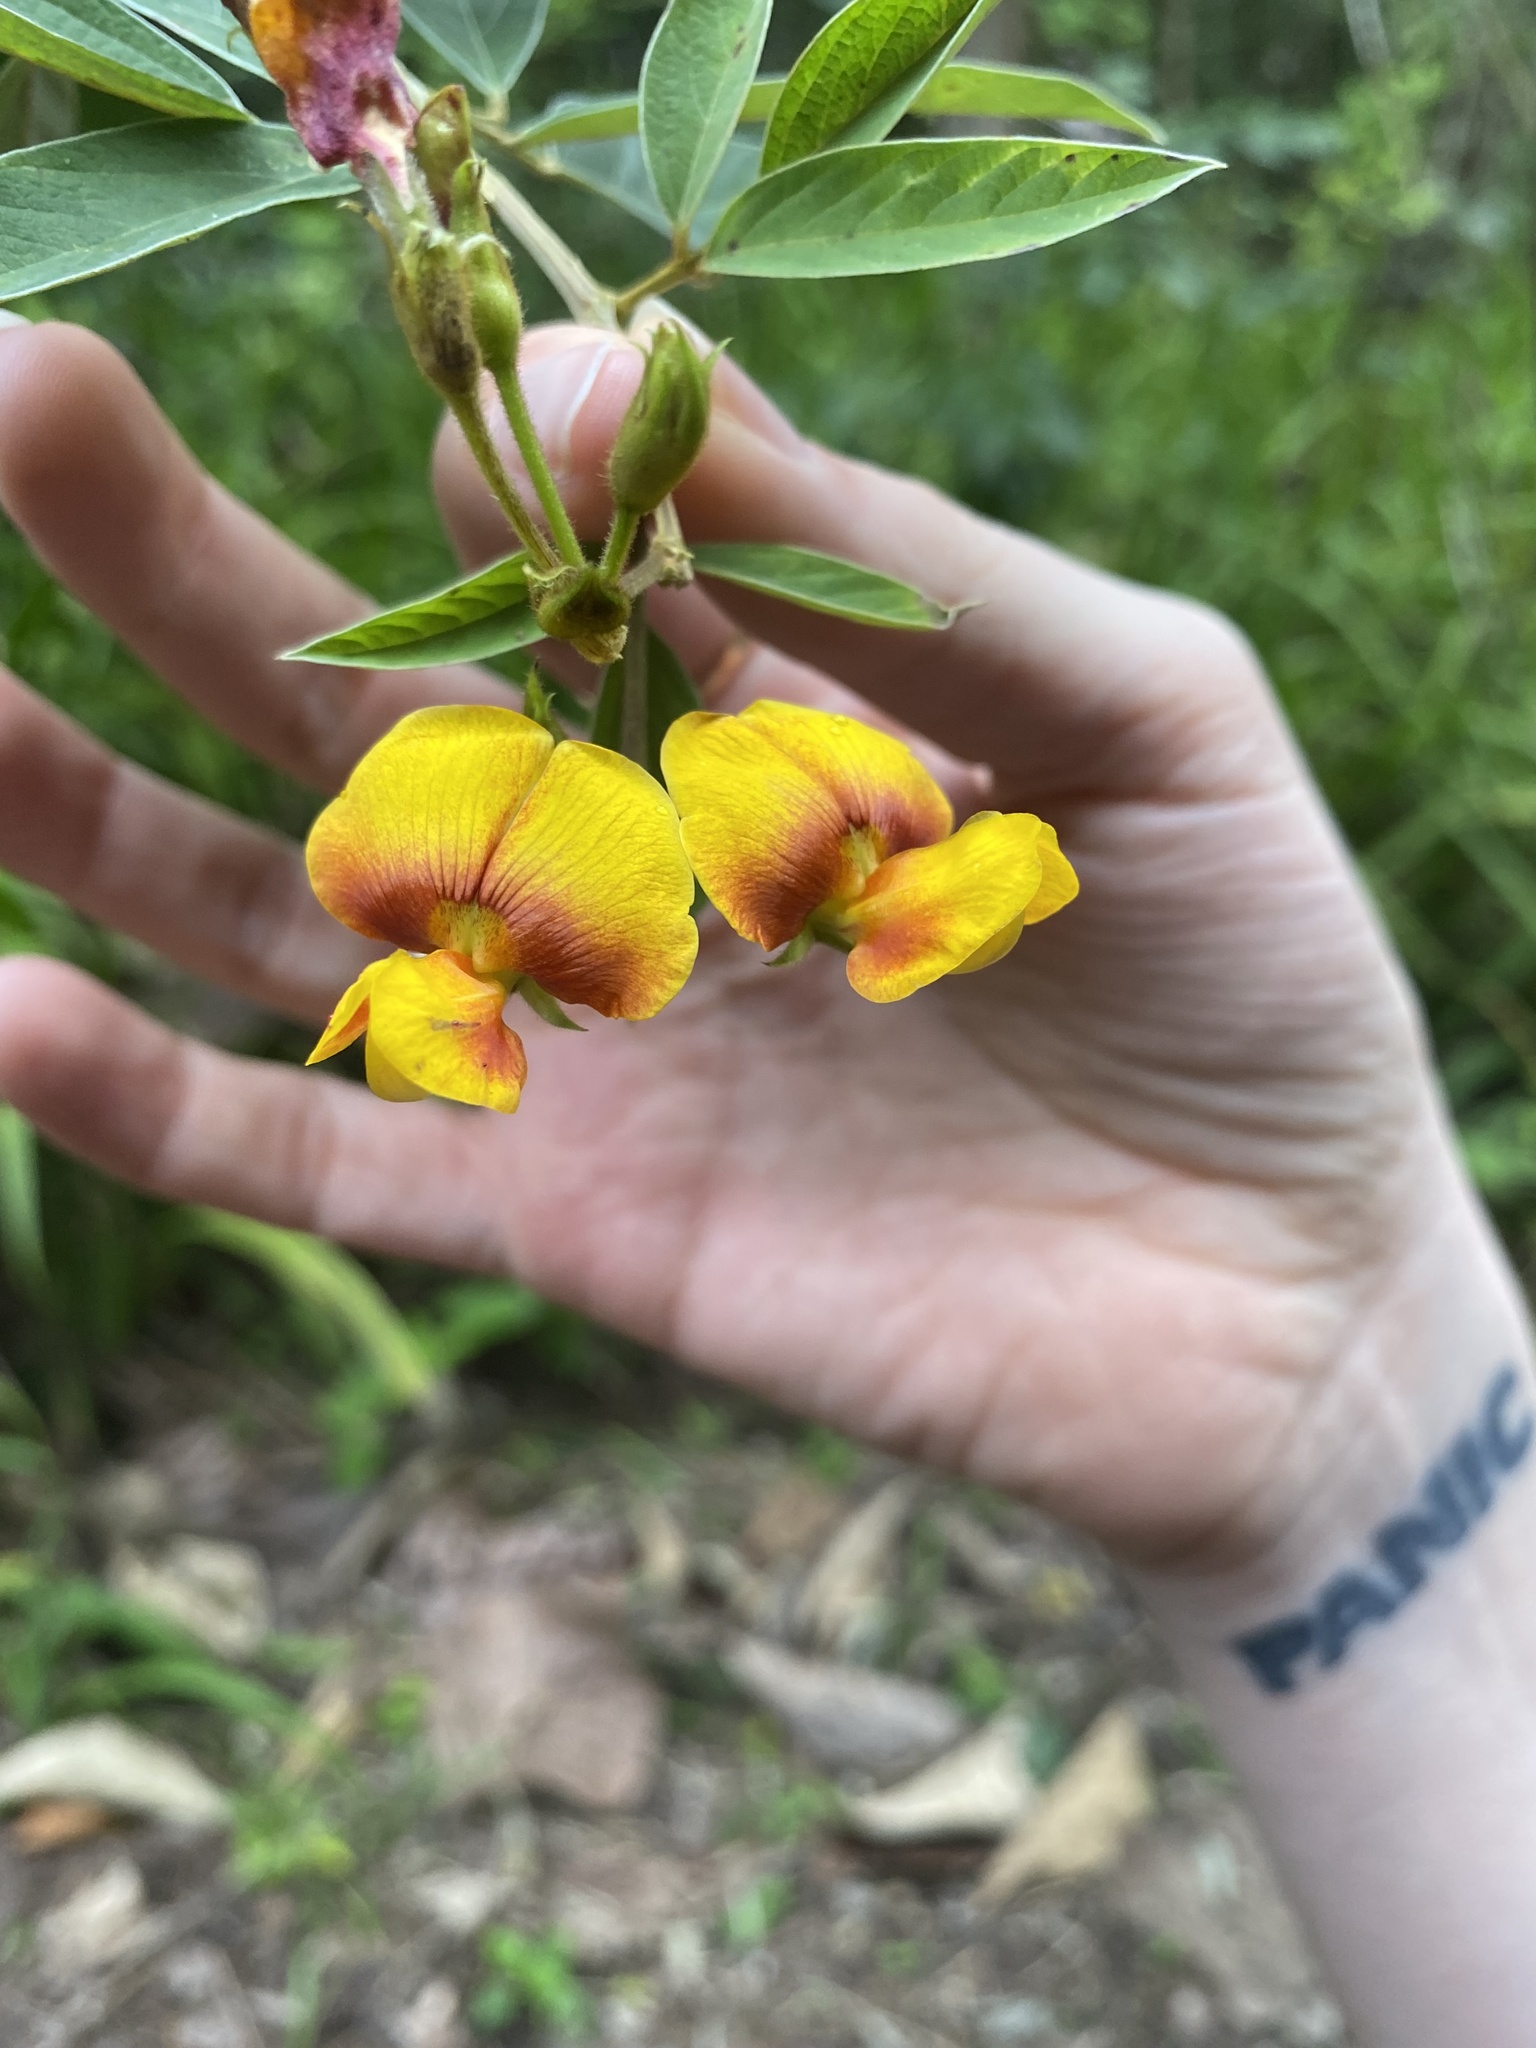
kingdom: Plantae
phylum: Tracheophyta
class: Magnoliopsida
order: Fabales
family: Fabaceae
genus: Cajanus
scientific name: Cajanus cajan
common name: Pigeonpea
